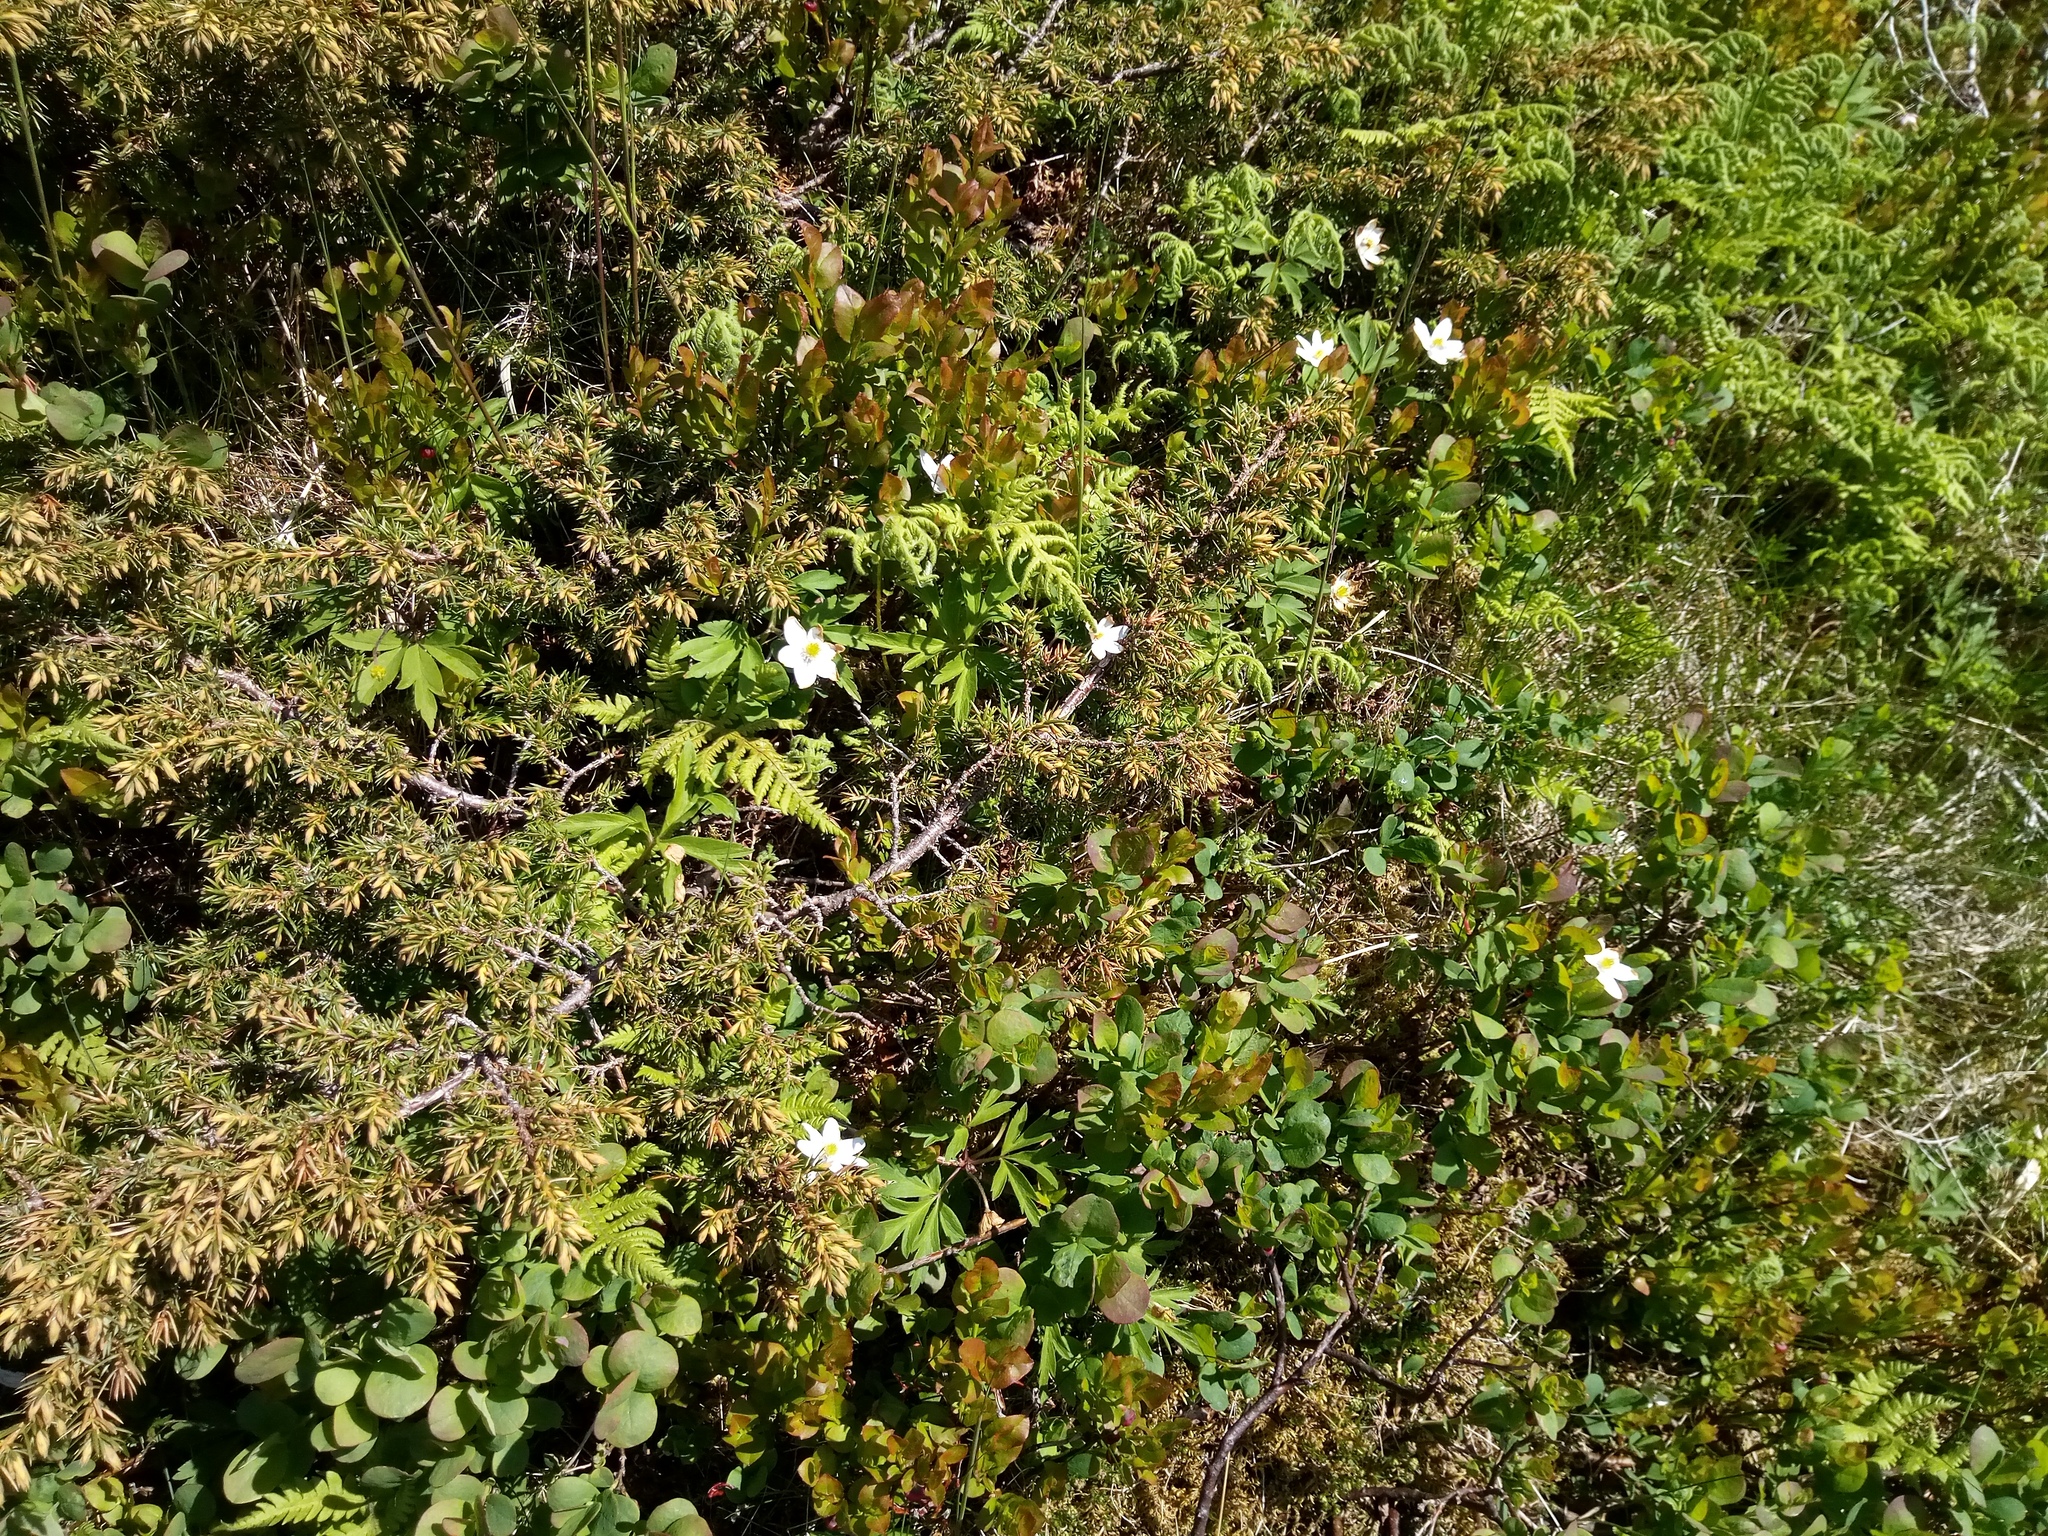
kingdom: Plantae
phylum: Tracheophyta
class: Magnoliopsida
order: Ericales
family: Ericaceae
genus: Vaccinium
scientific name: Vaccinium uliginosum
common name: Bog bilberry
